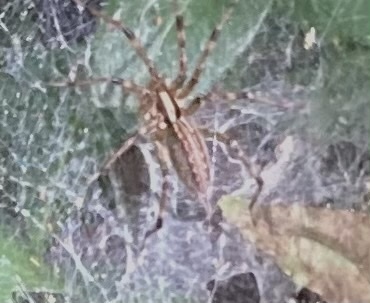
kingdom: Animalia
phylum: Arthropoda
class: Arachnida
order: Araneae
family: Agelenidae
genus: Agelenopsis
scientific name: Agelenopsis
